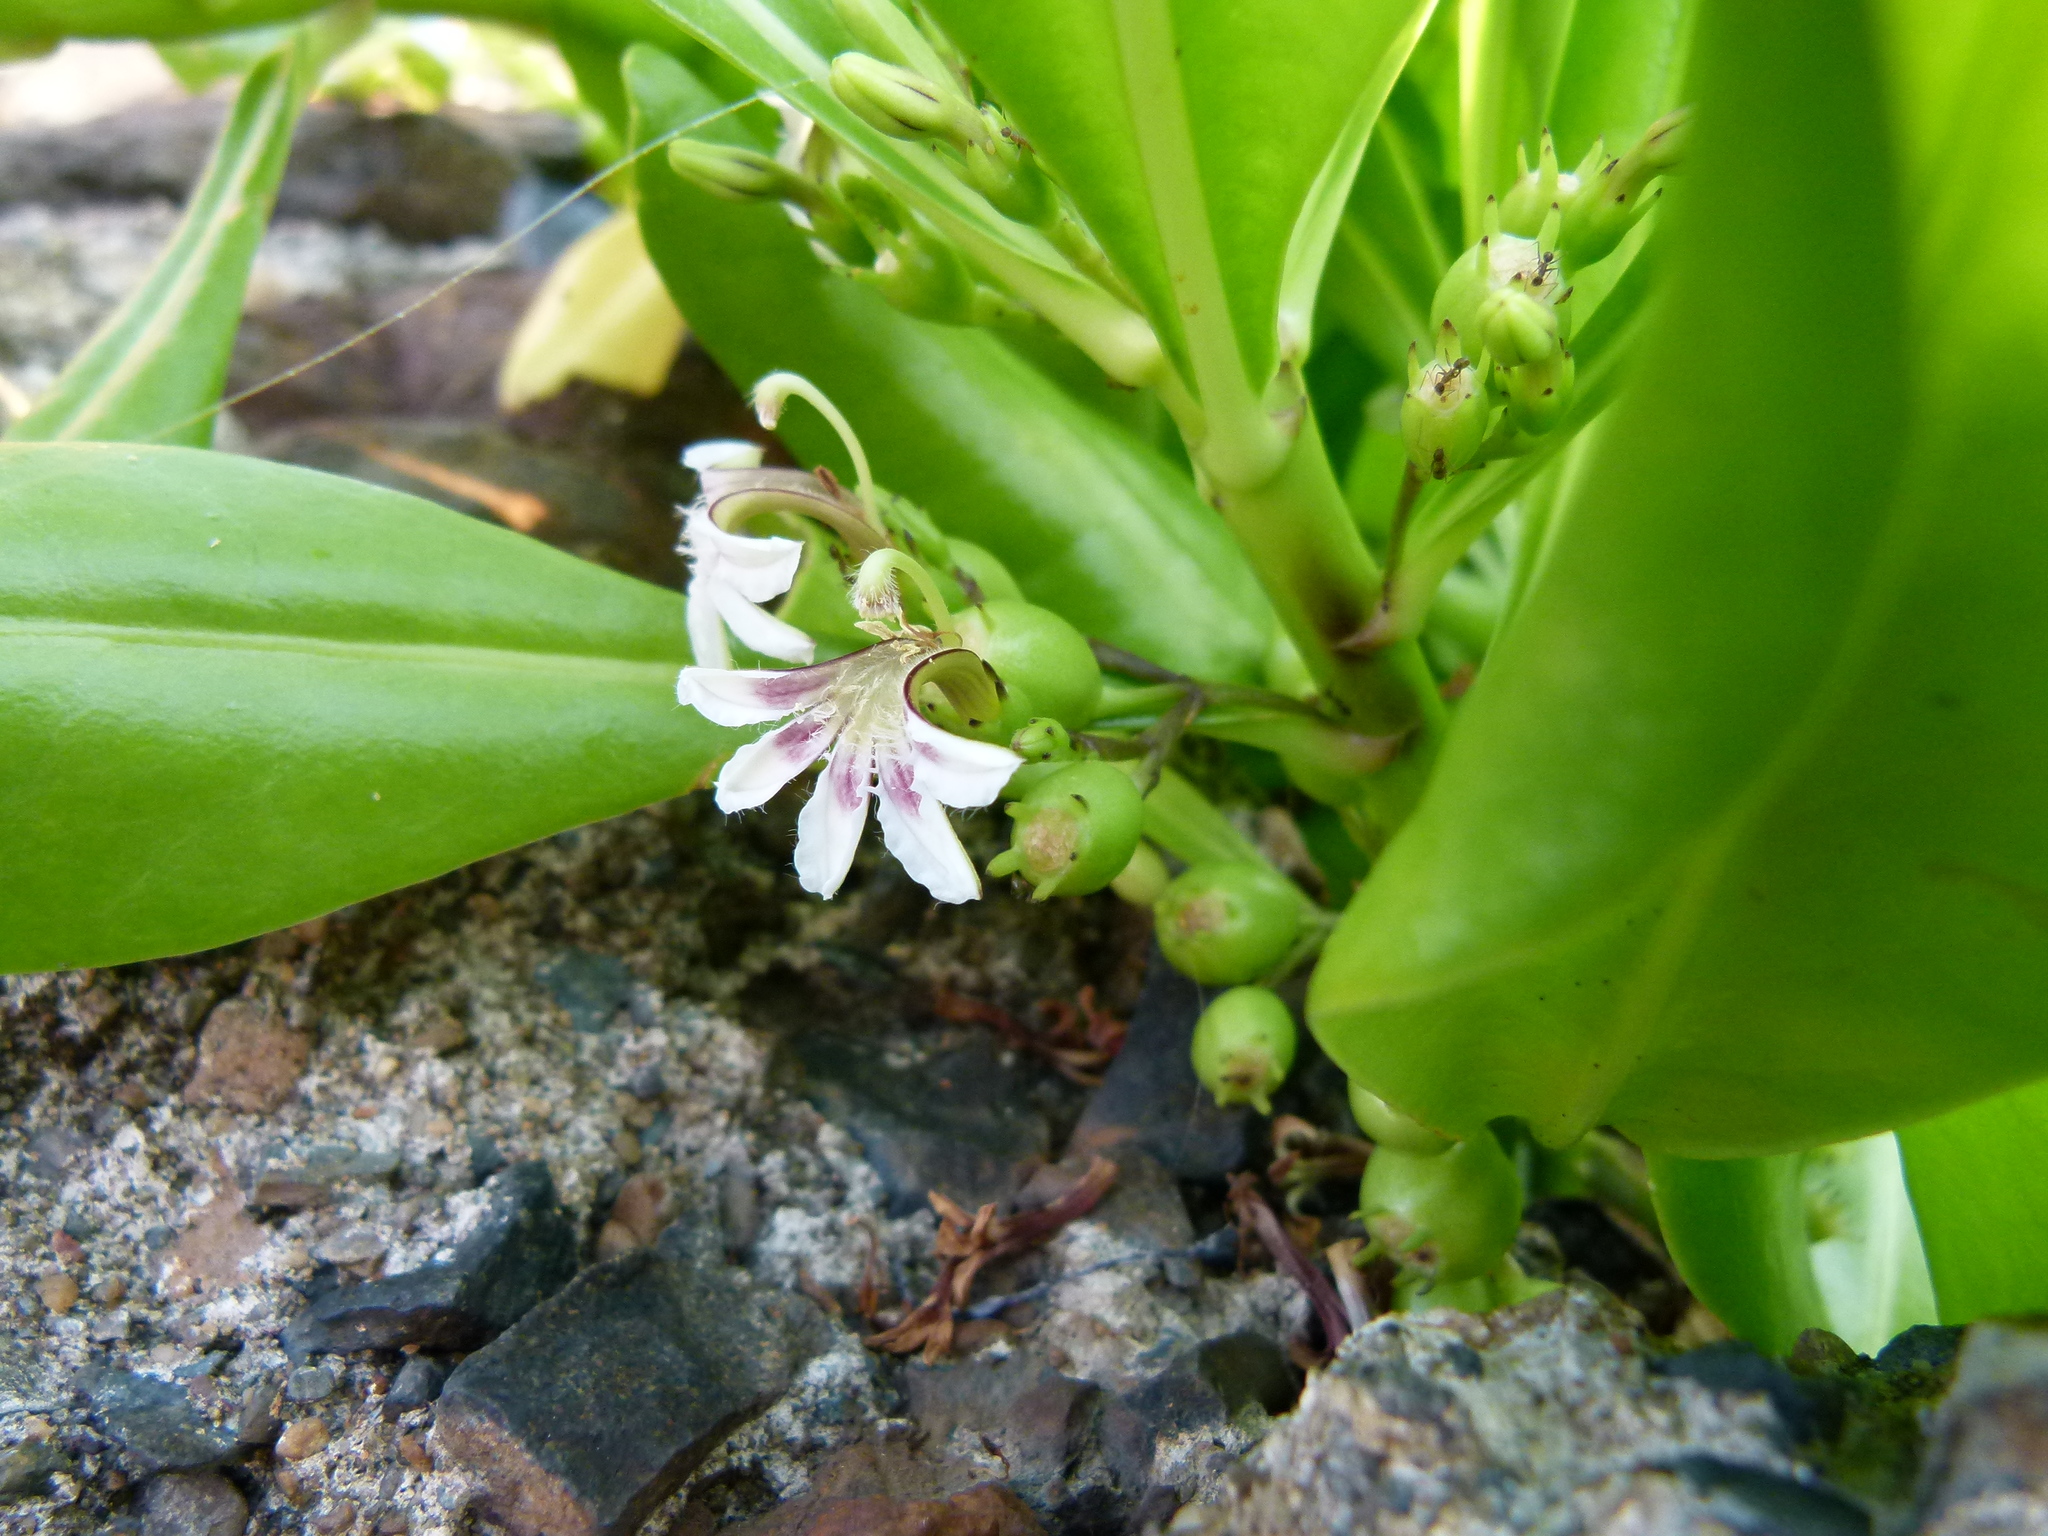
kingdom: Plantae
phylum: Tracheophyta
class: Magnoliopsida
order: Asterales
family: Goodeniaceae
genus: Scaevola
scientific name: Scaevola taccada
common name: Sea lettucetree
